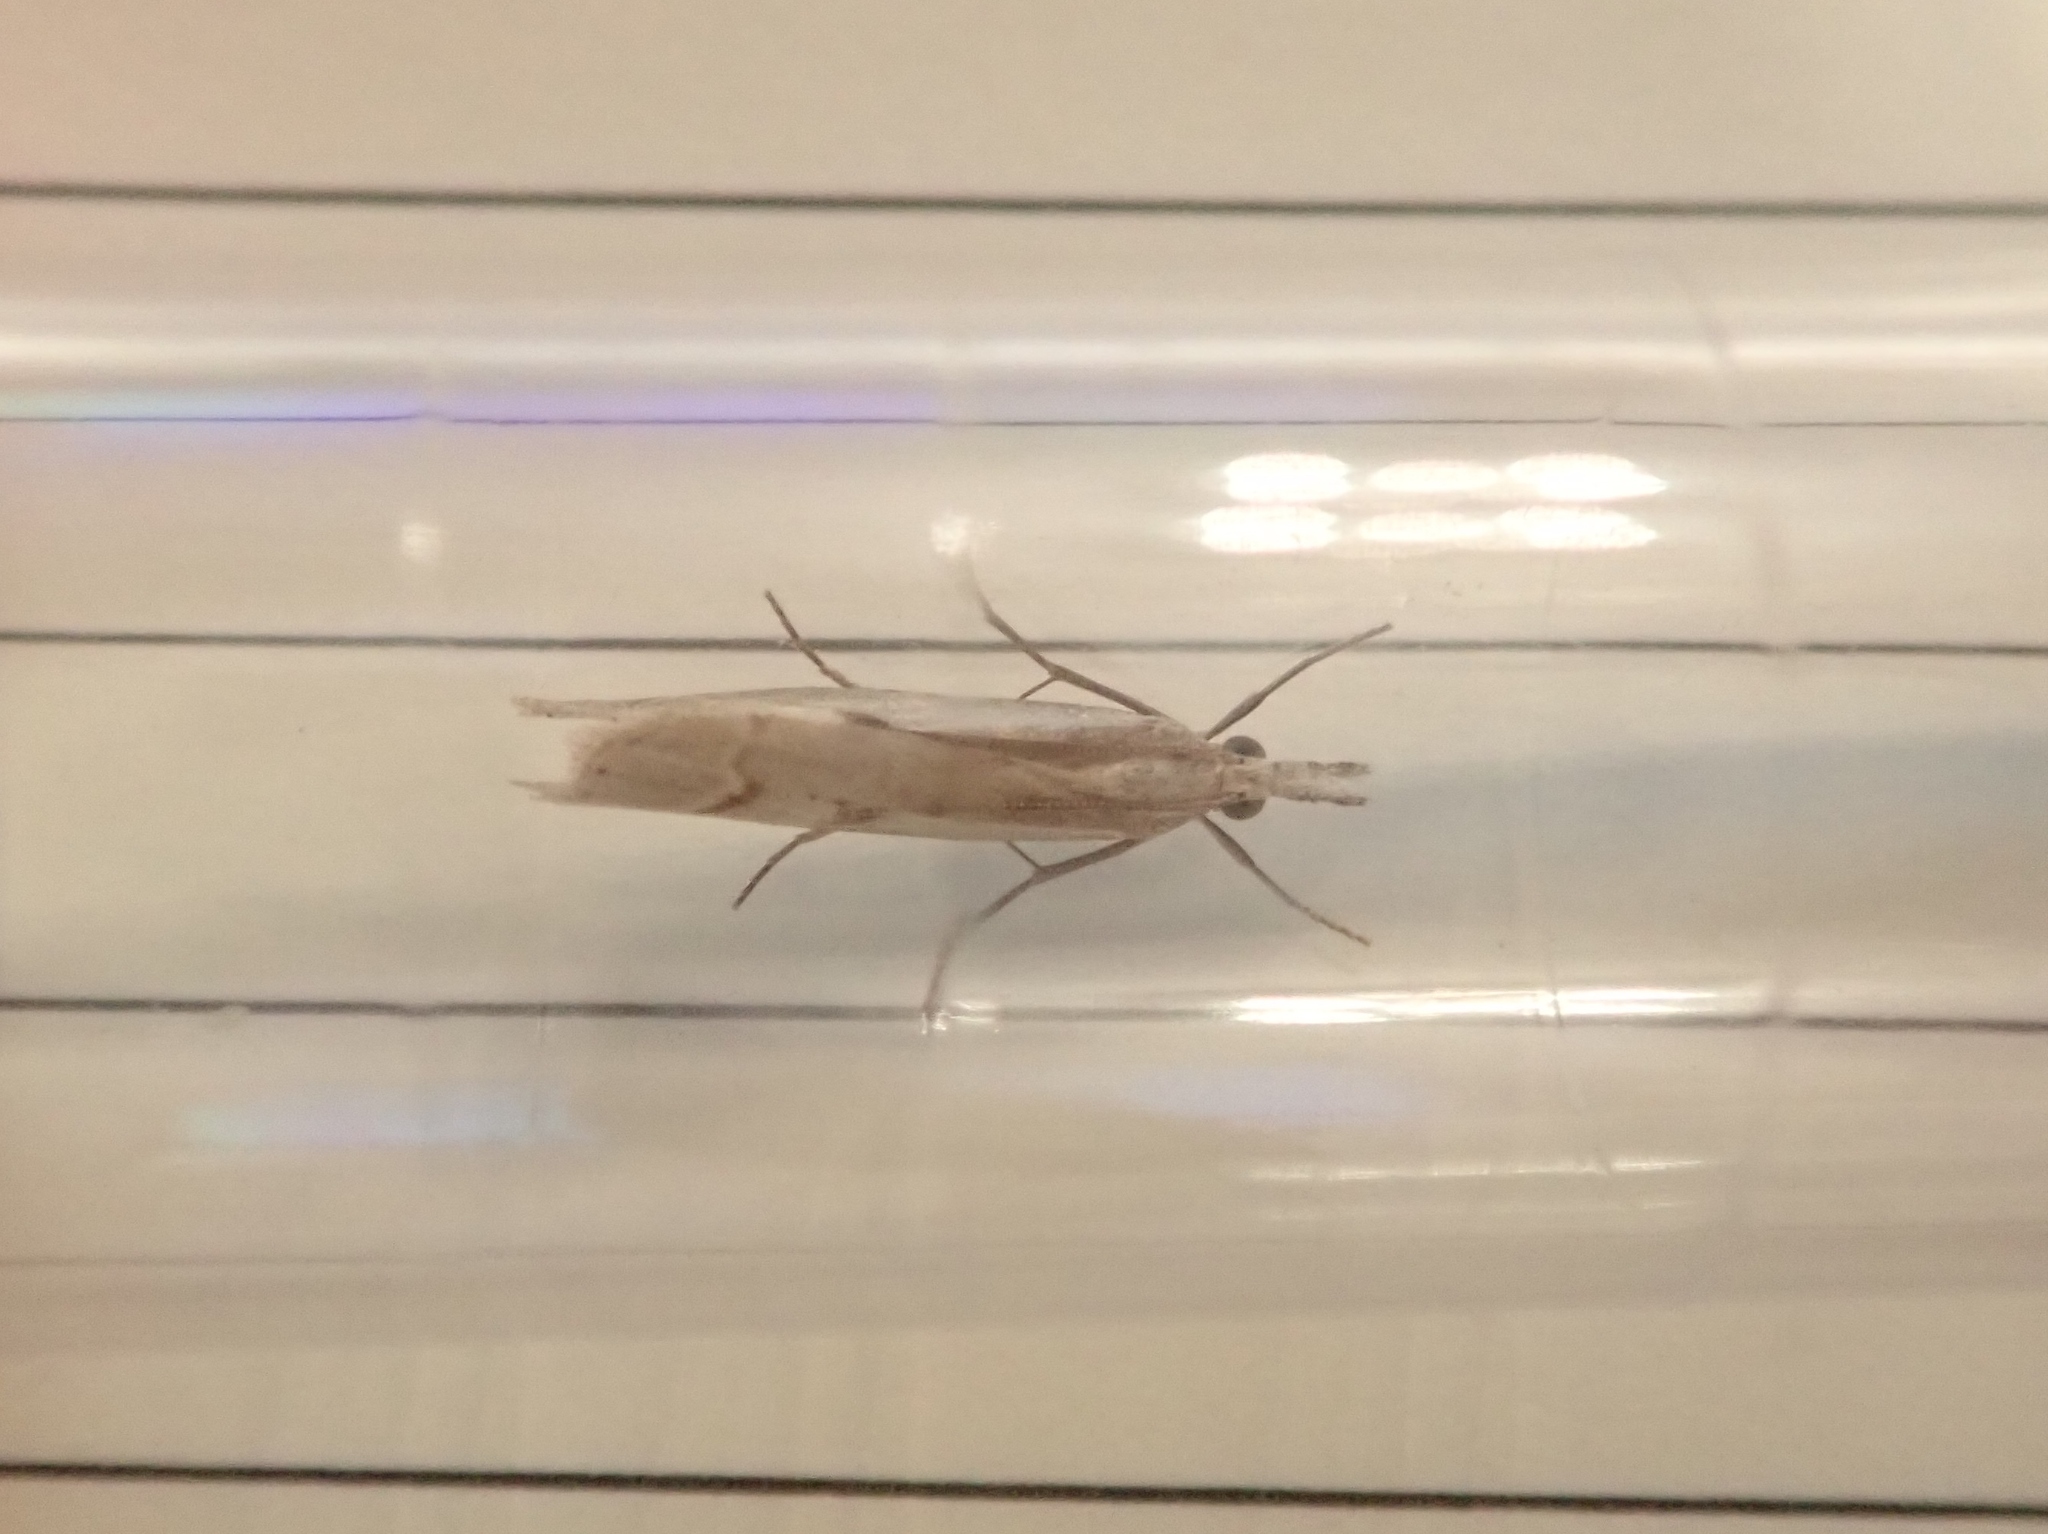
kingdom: Animalia
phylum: Arthropoda
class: Insecta
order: Lepidoptera
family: Crambidae
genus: Agriphila
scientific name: Agriphila geniculea
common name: Elbow-stripe grass-veneer
